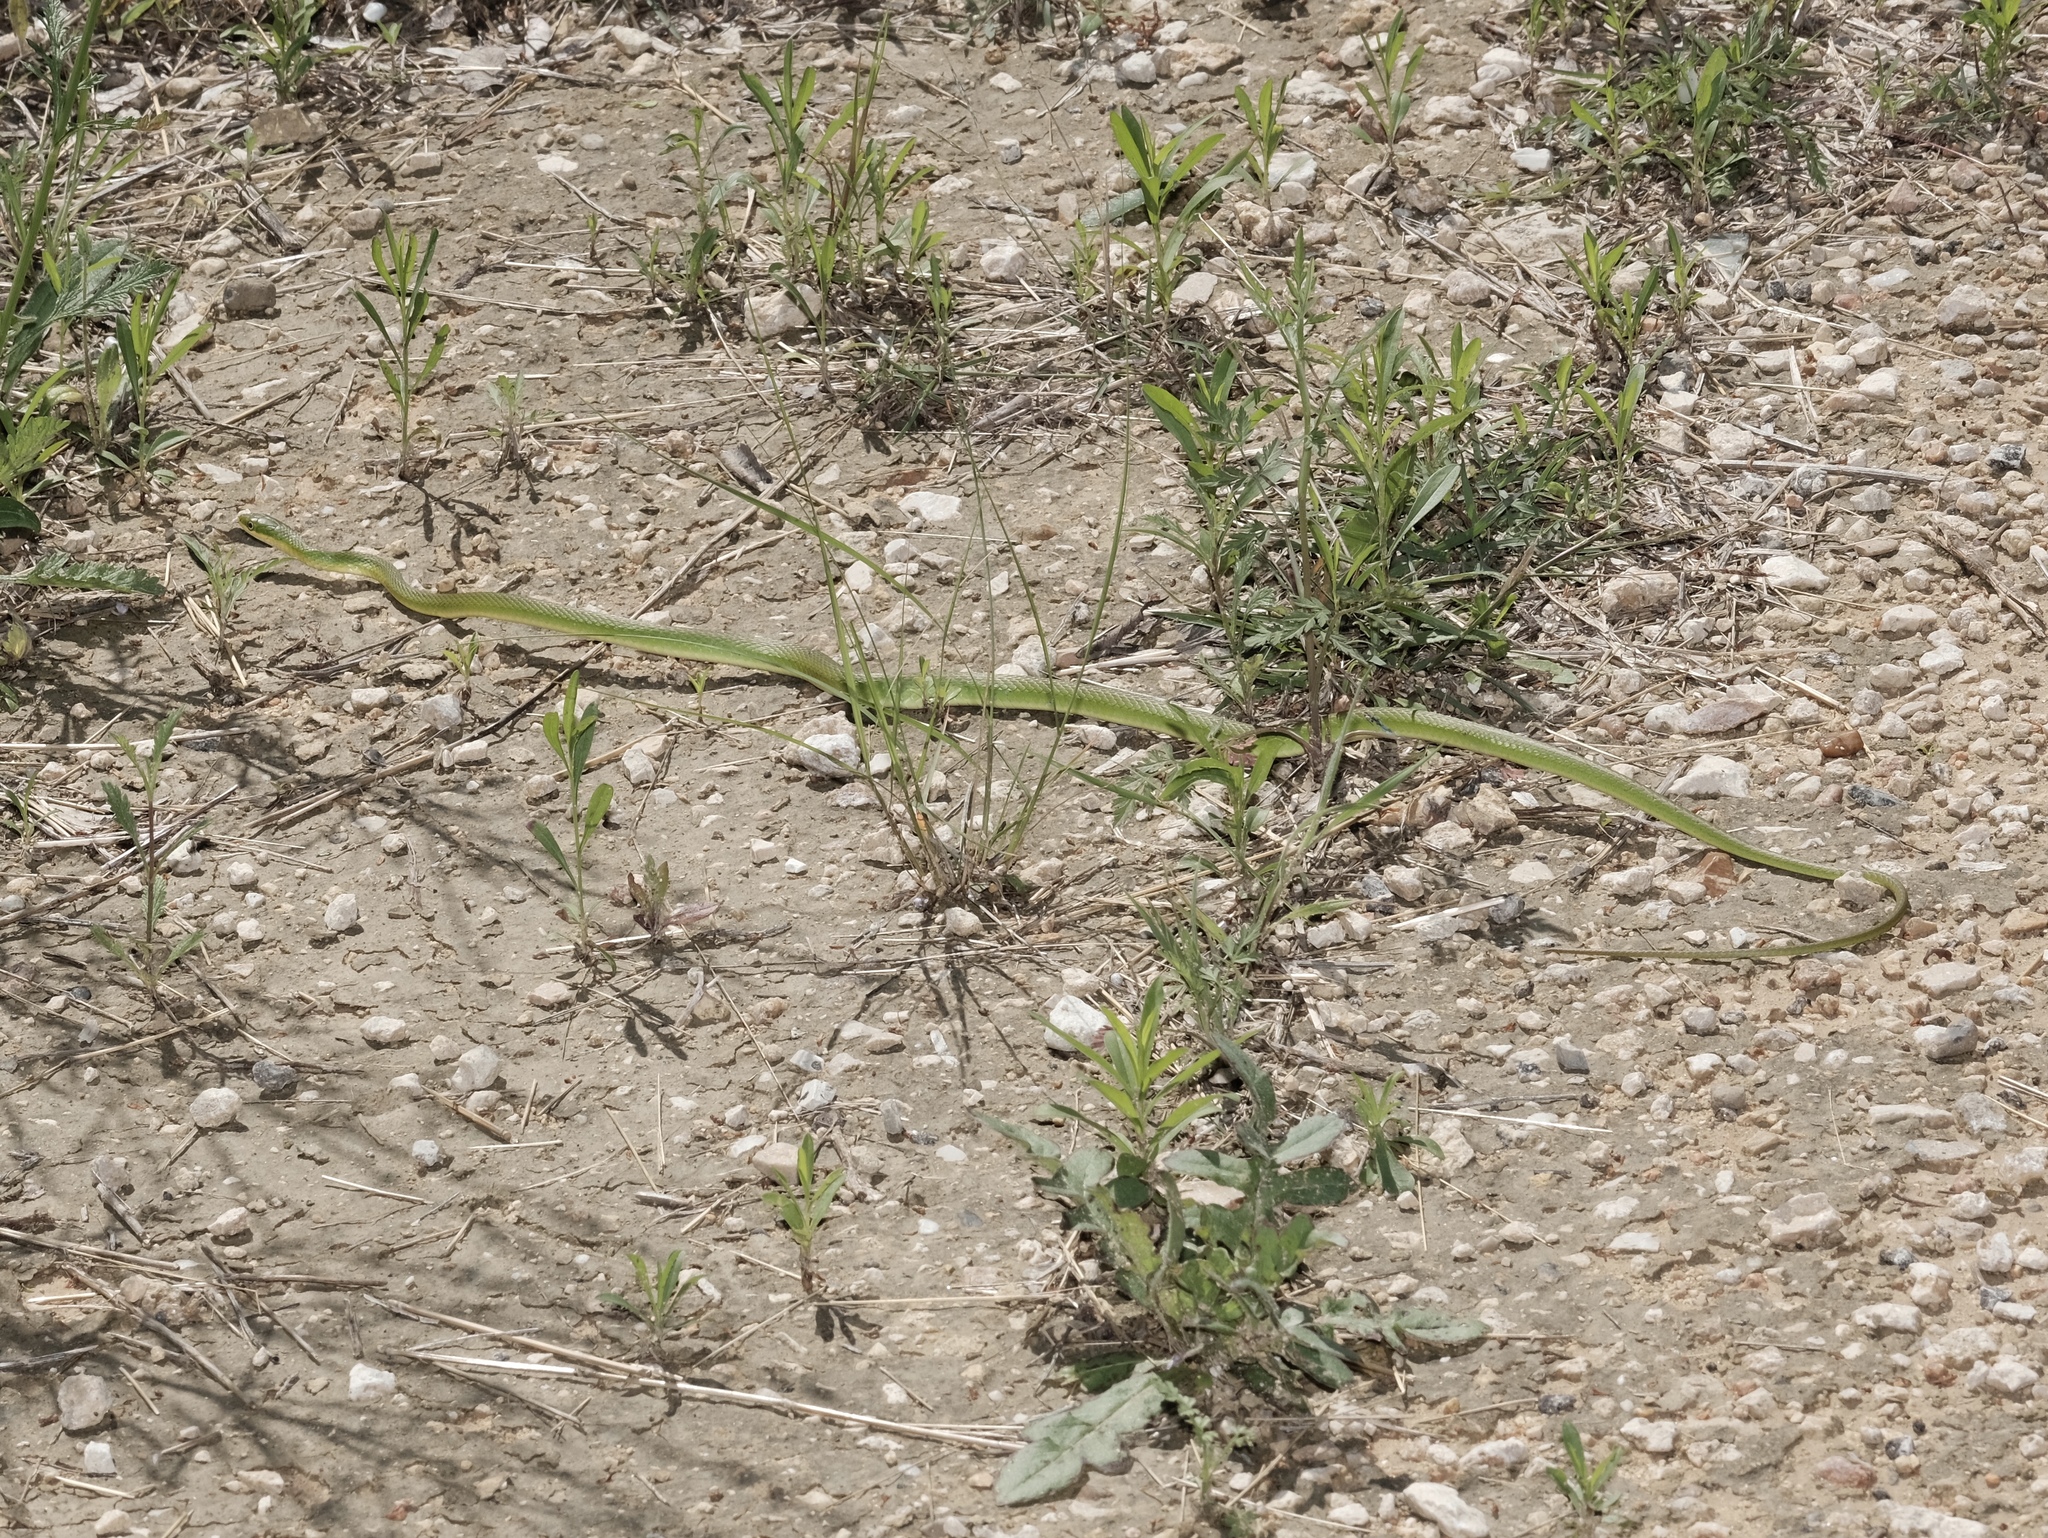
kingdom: Animalia
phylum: Chordata
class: Squamata
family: Colubridae
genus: Opheodrys
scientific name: Opheodrys aestivus
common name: Rough greensnake
